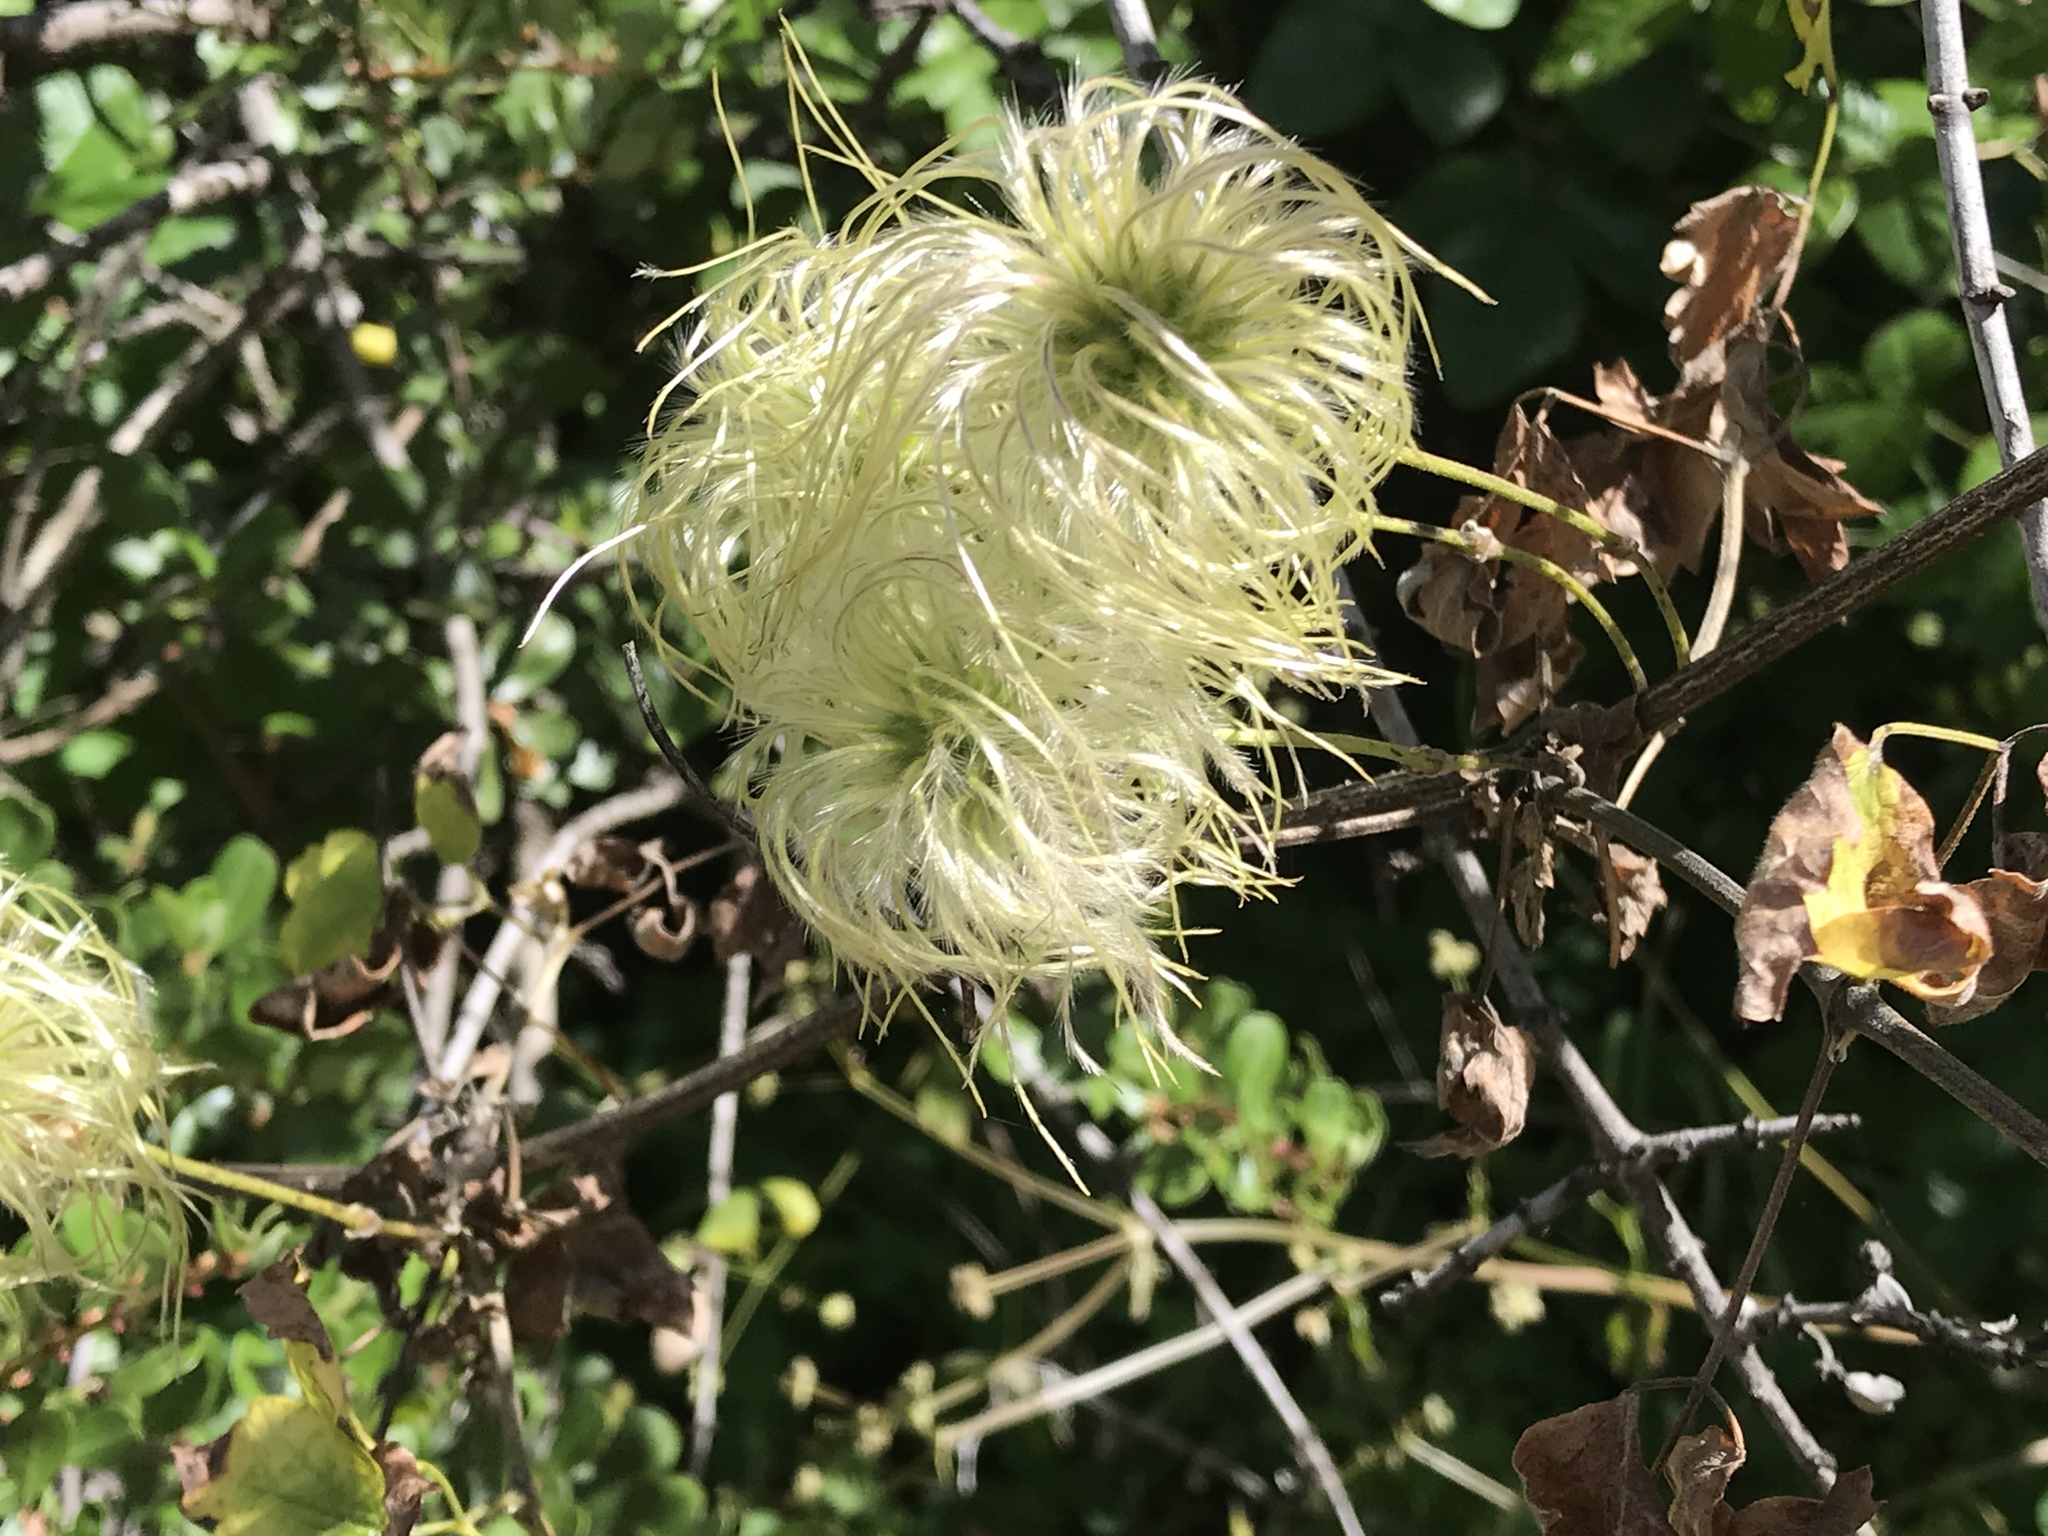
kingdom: Plantae
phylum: Tracheophyta
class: Magnoliopsida
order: Ranunculales
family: Ranunculaceae
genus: Clematis
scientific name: Clematis lasiantha
